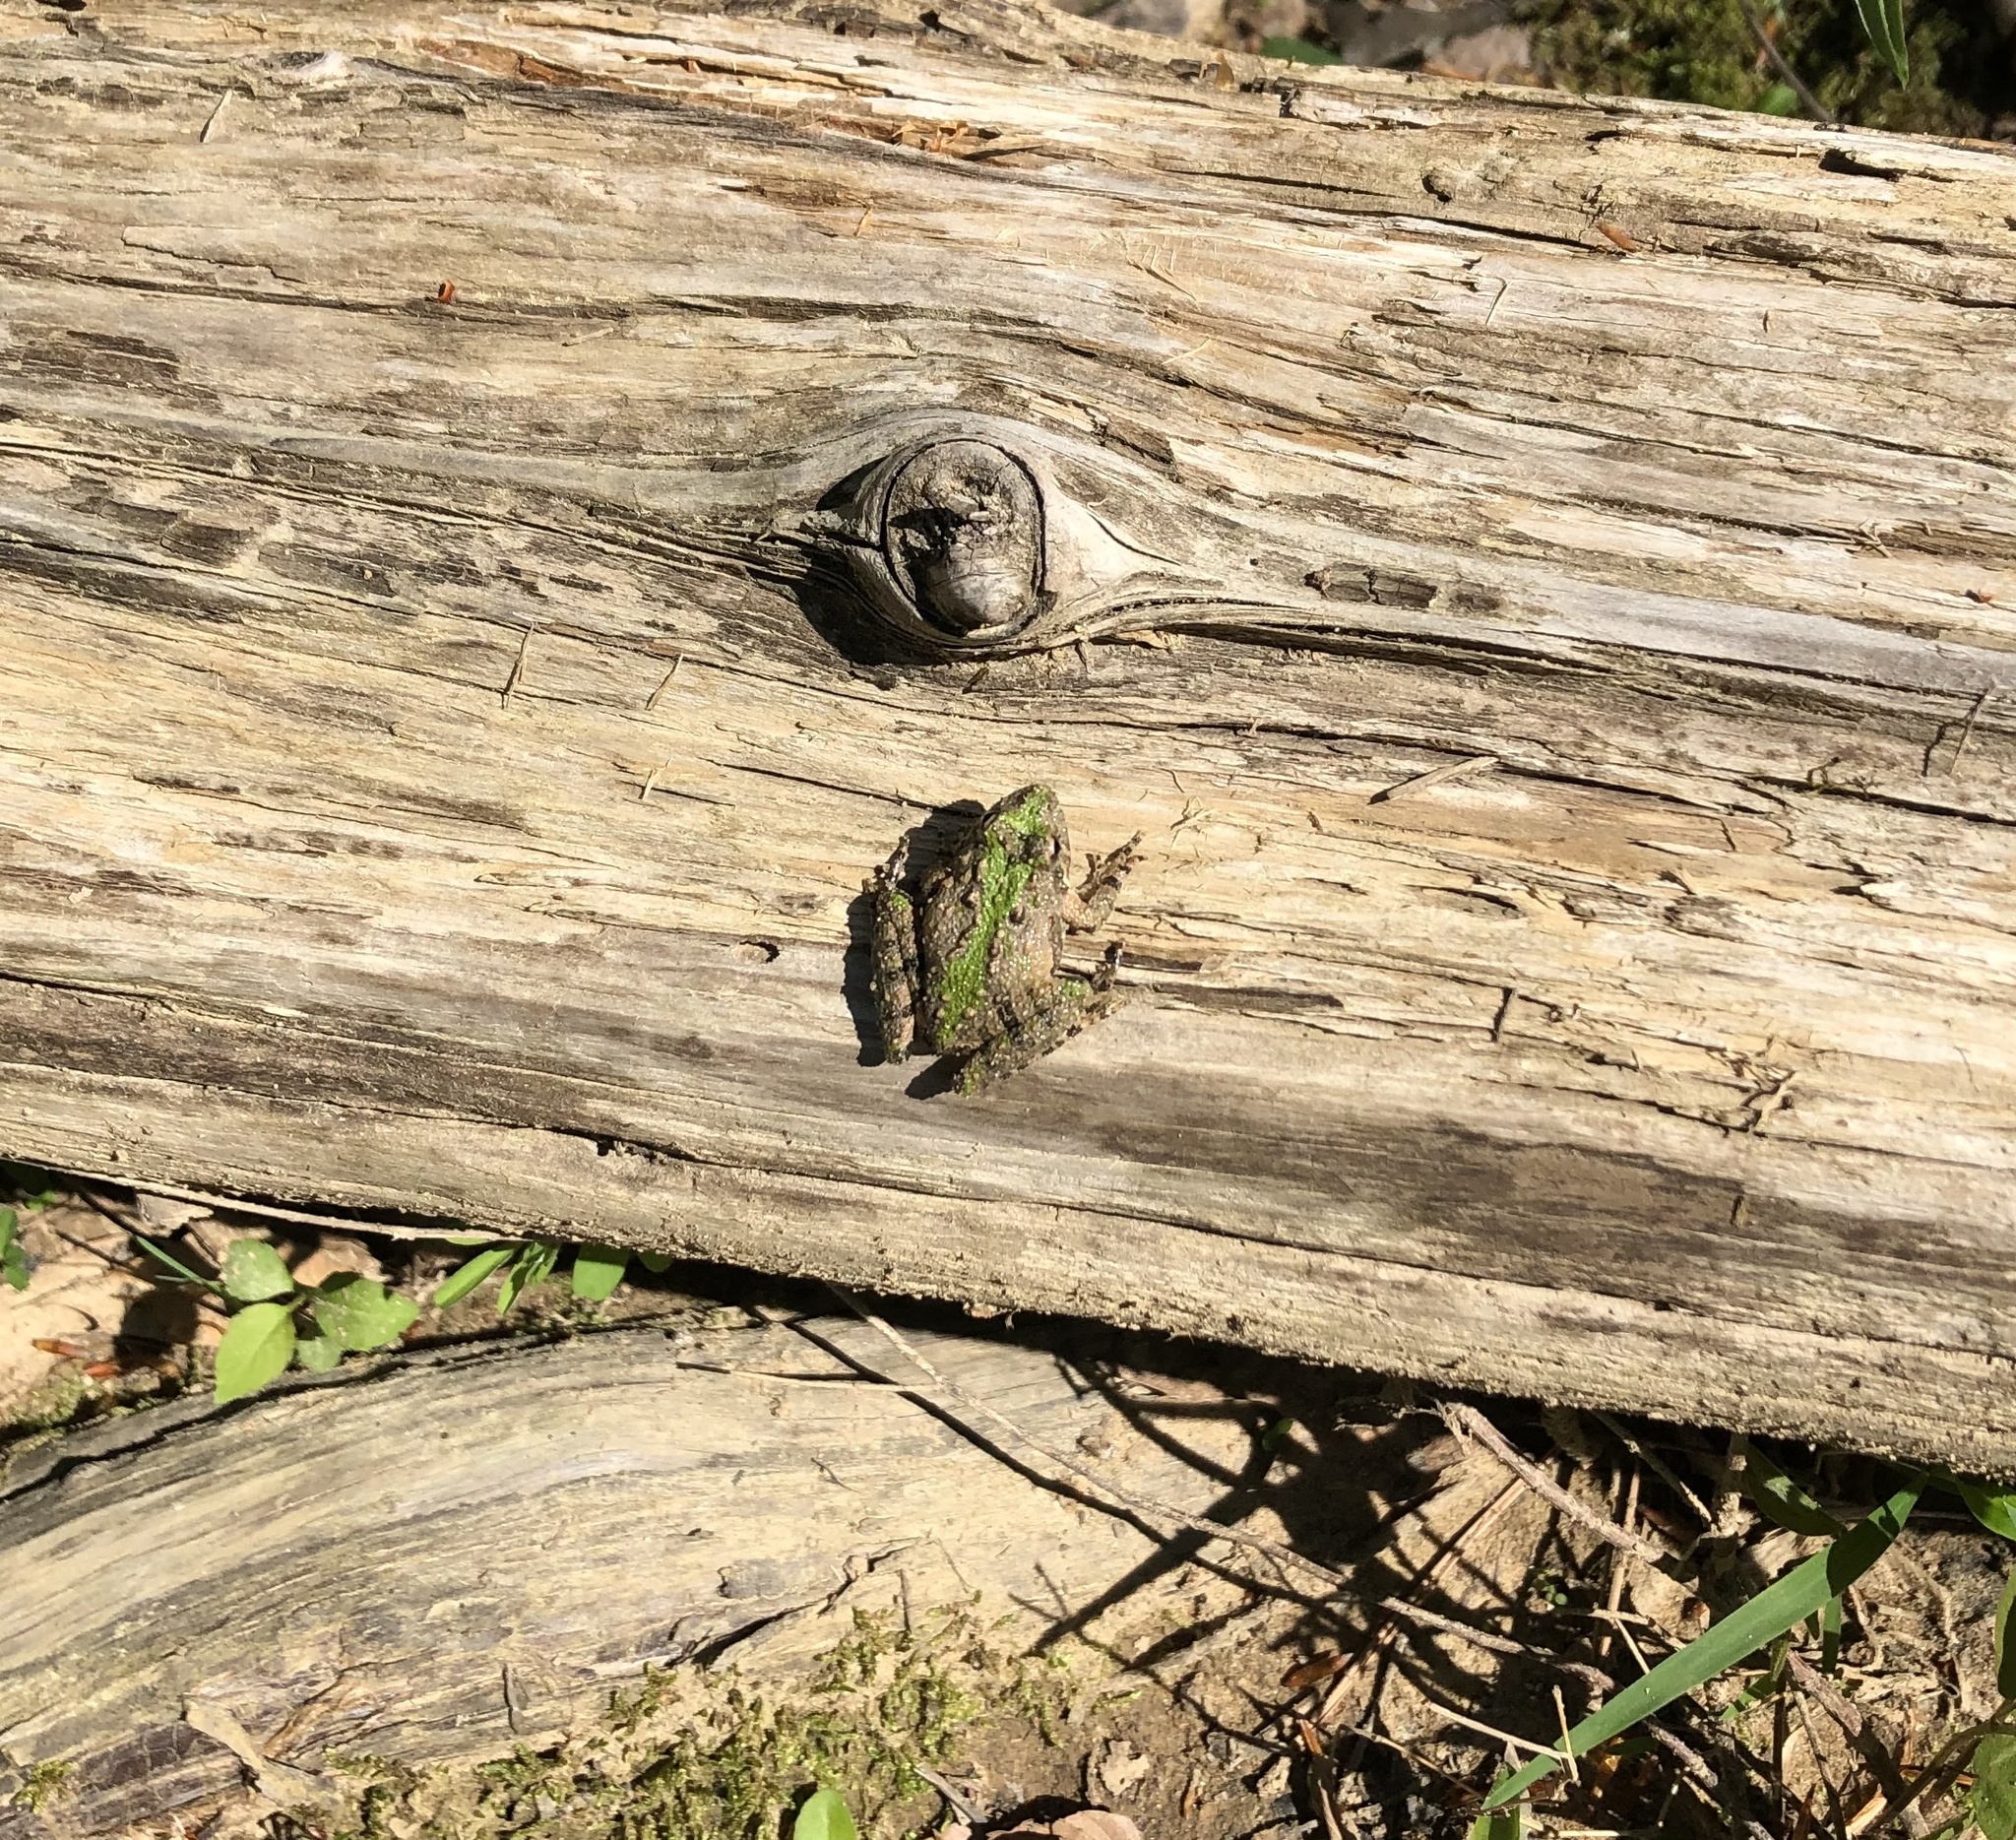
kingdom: Animalia
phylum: Chordata
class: Amphibia
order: Anura
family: Hylidae
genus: Acris
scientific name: Acris crepitans
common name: Northern cricket frog
